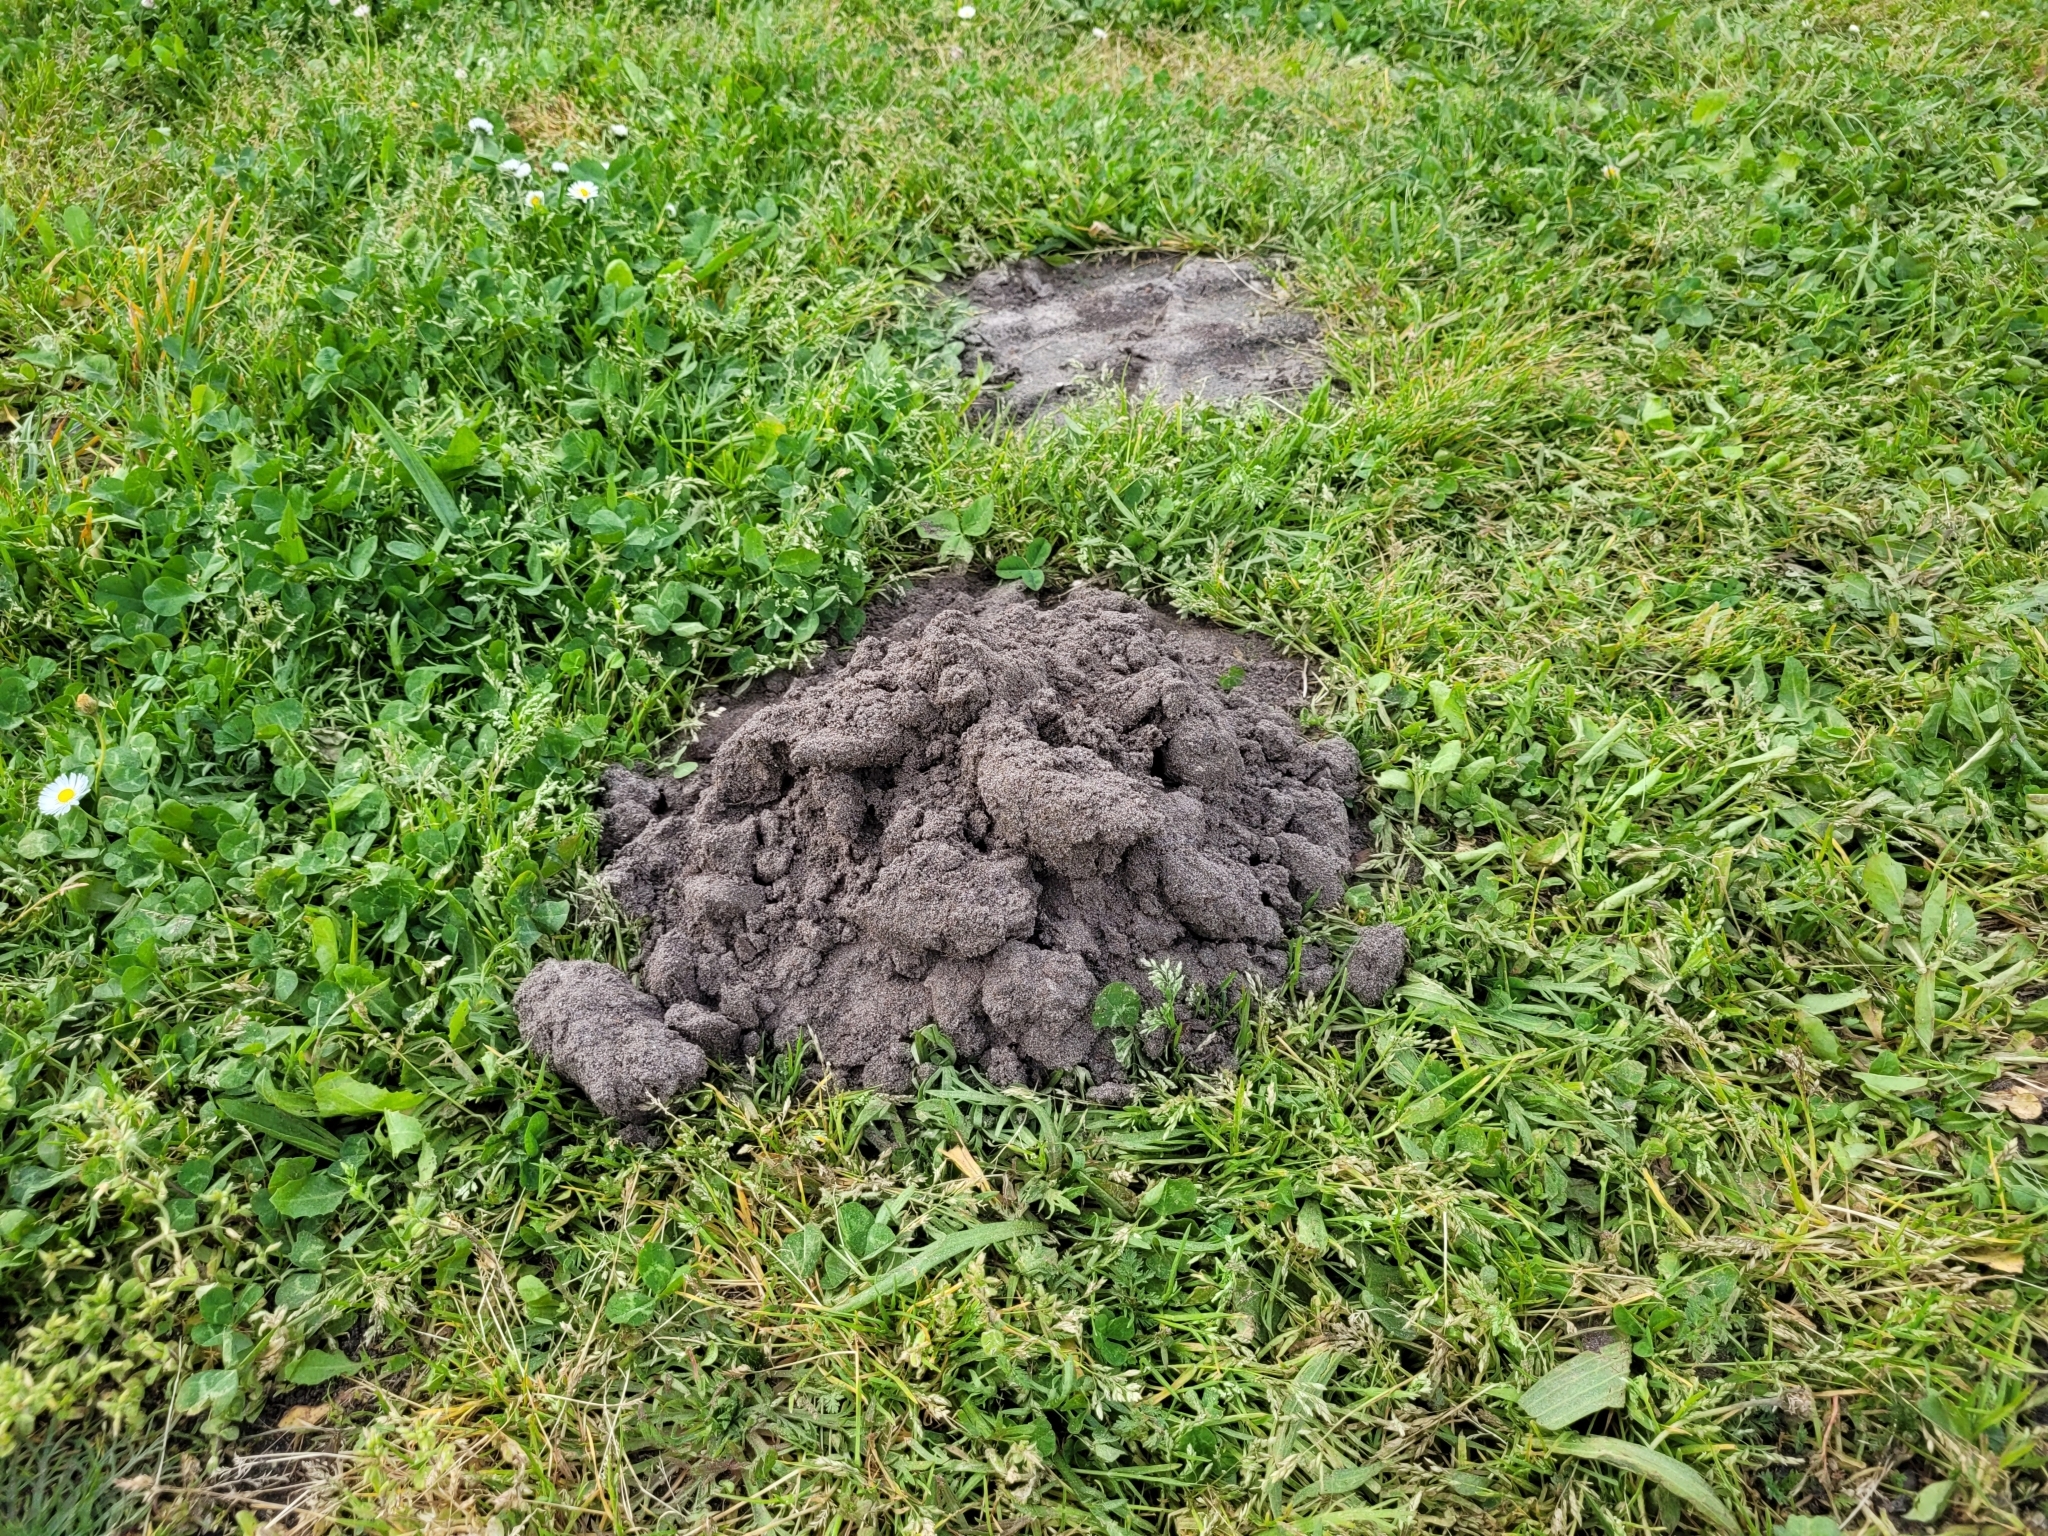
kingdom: Animalia
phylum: Chordata
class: Mammalia
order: Soricomorpha
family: Talpidae
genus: Talpa
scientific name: Talpa aquitania
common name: Aquitanian mole
